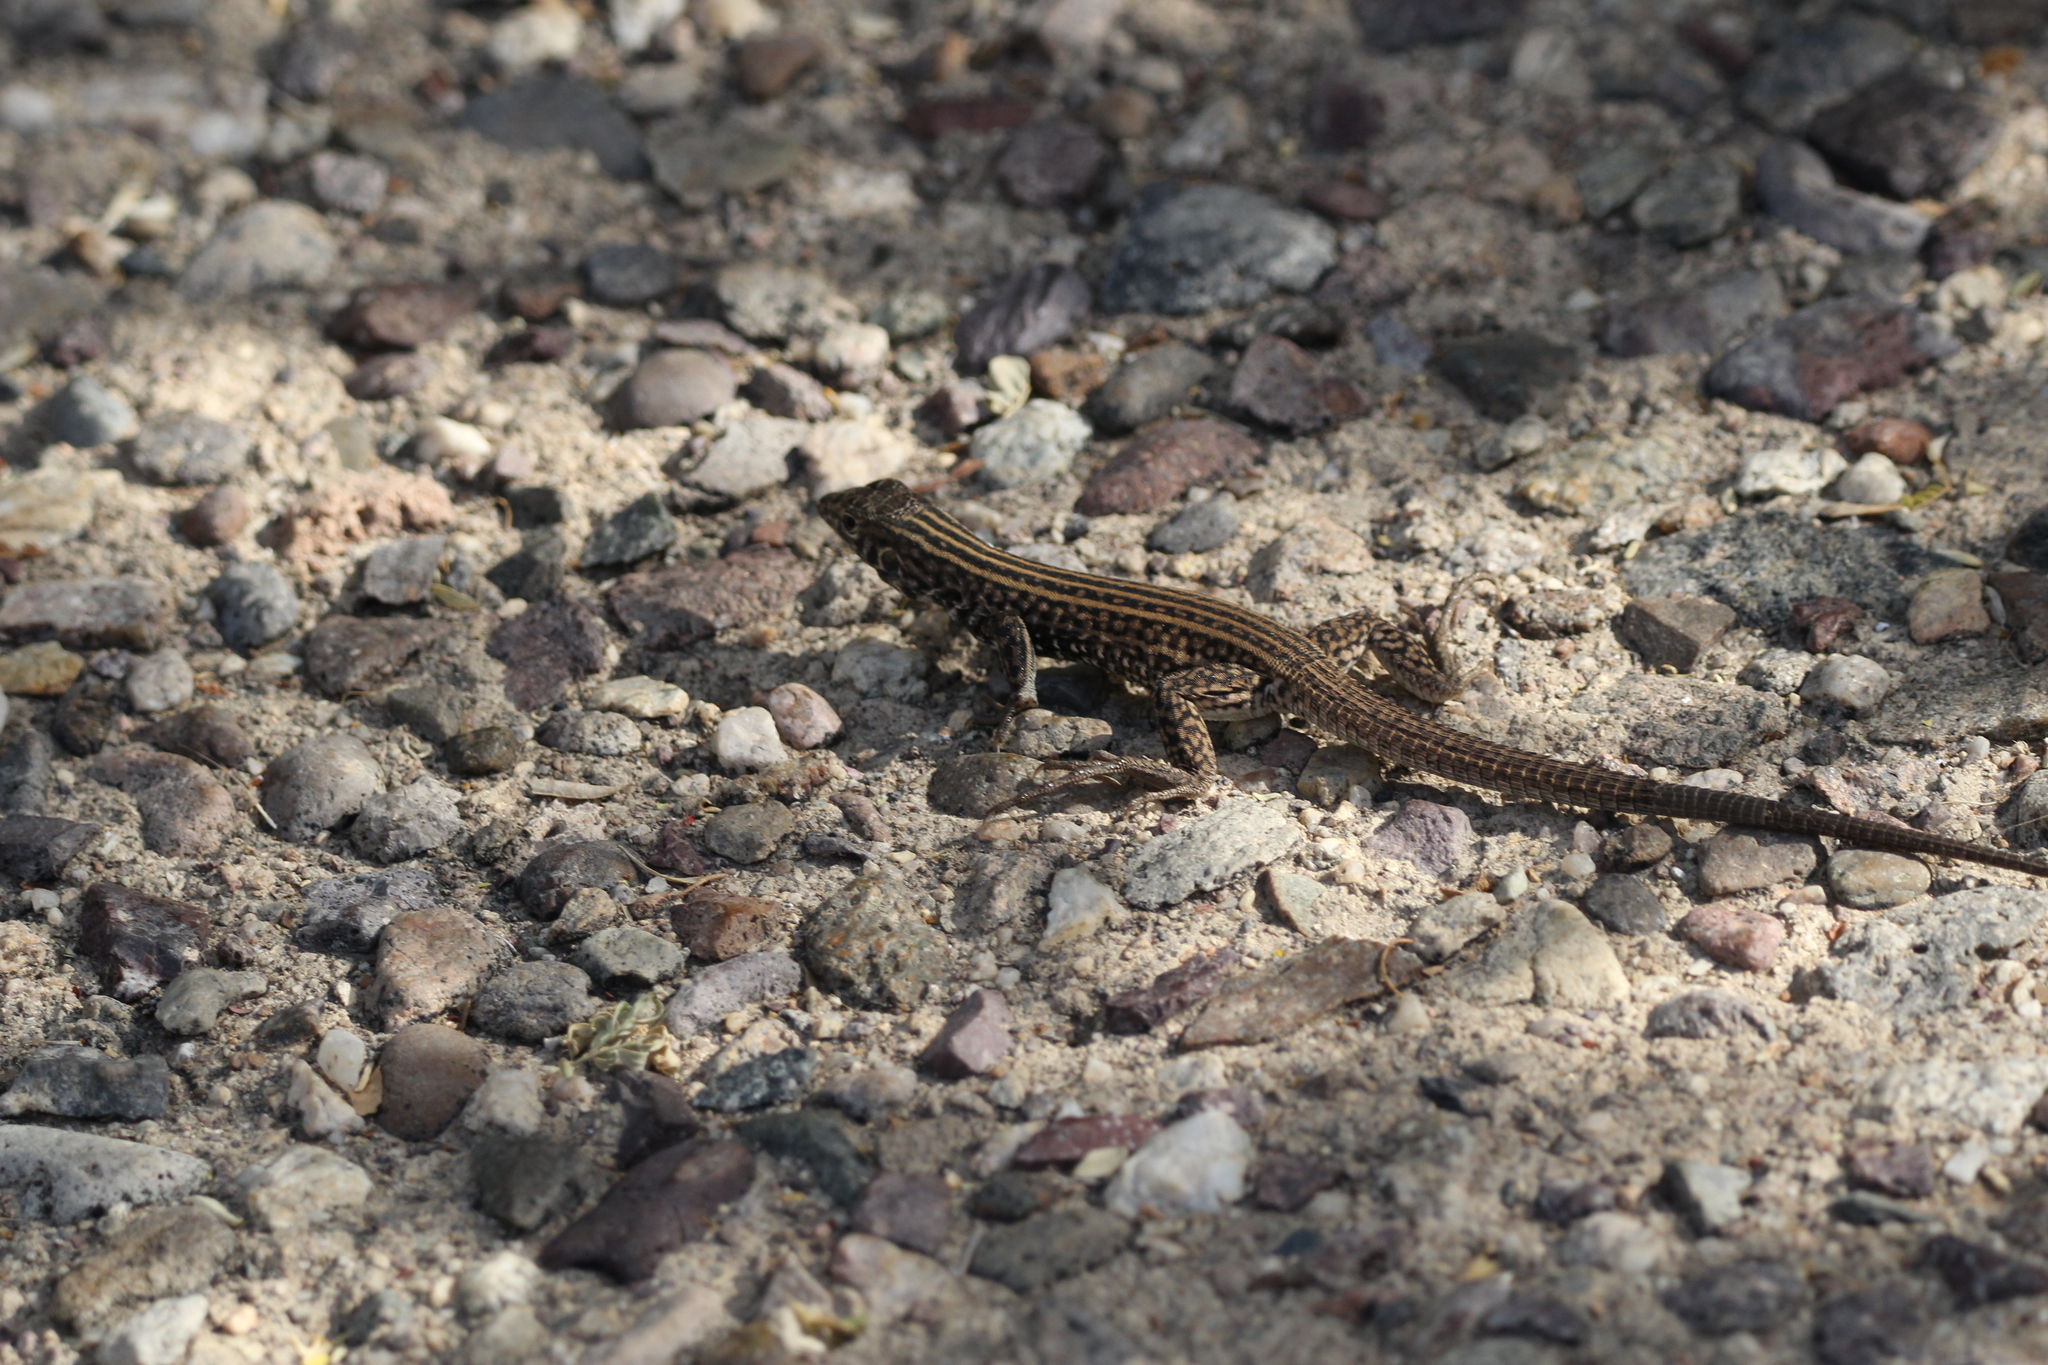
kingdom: Animalia
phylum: Chordata
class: Squamata
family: Teiidae
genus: Aspidoscelis
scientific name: Aspidoscelis tigris
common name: Tiger whiptail
